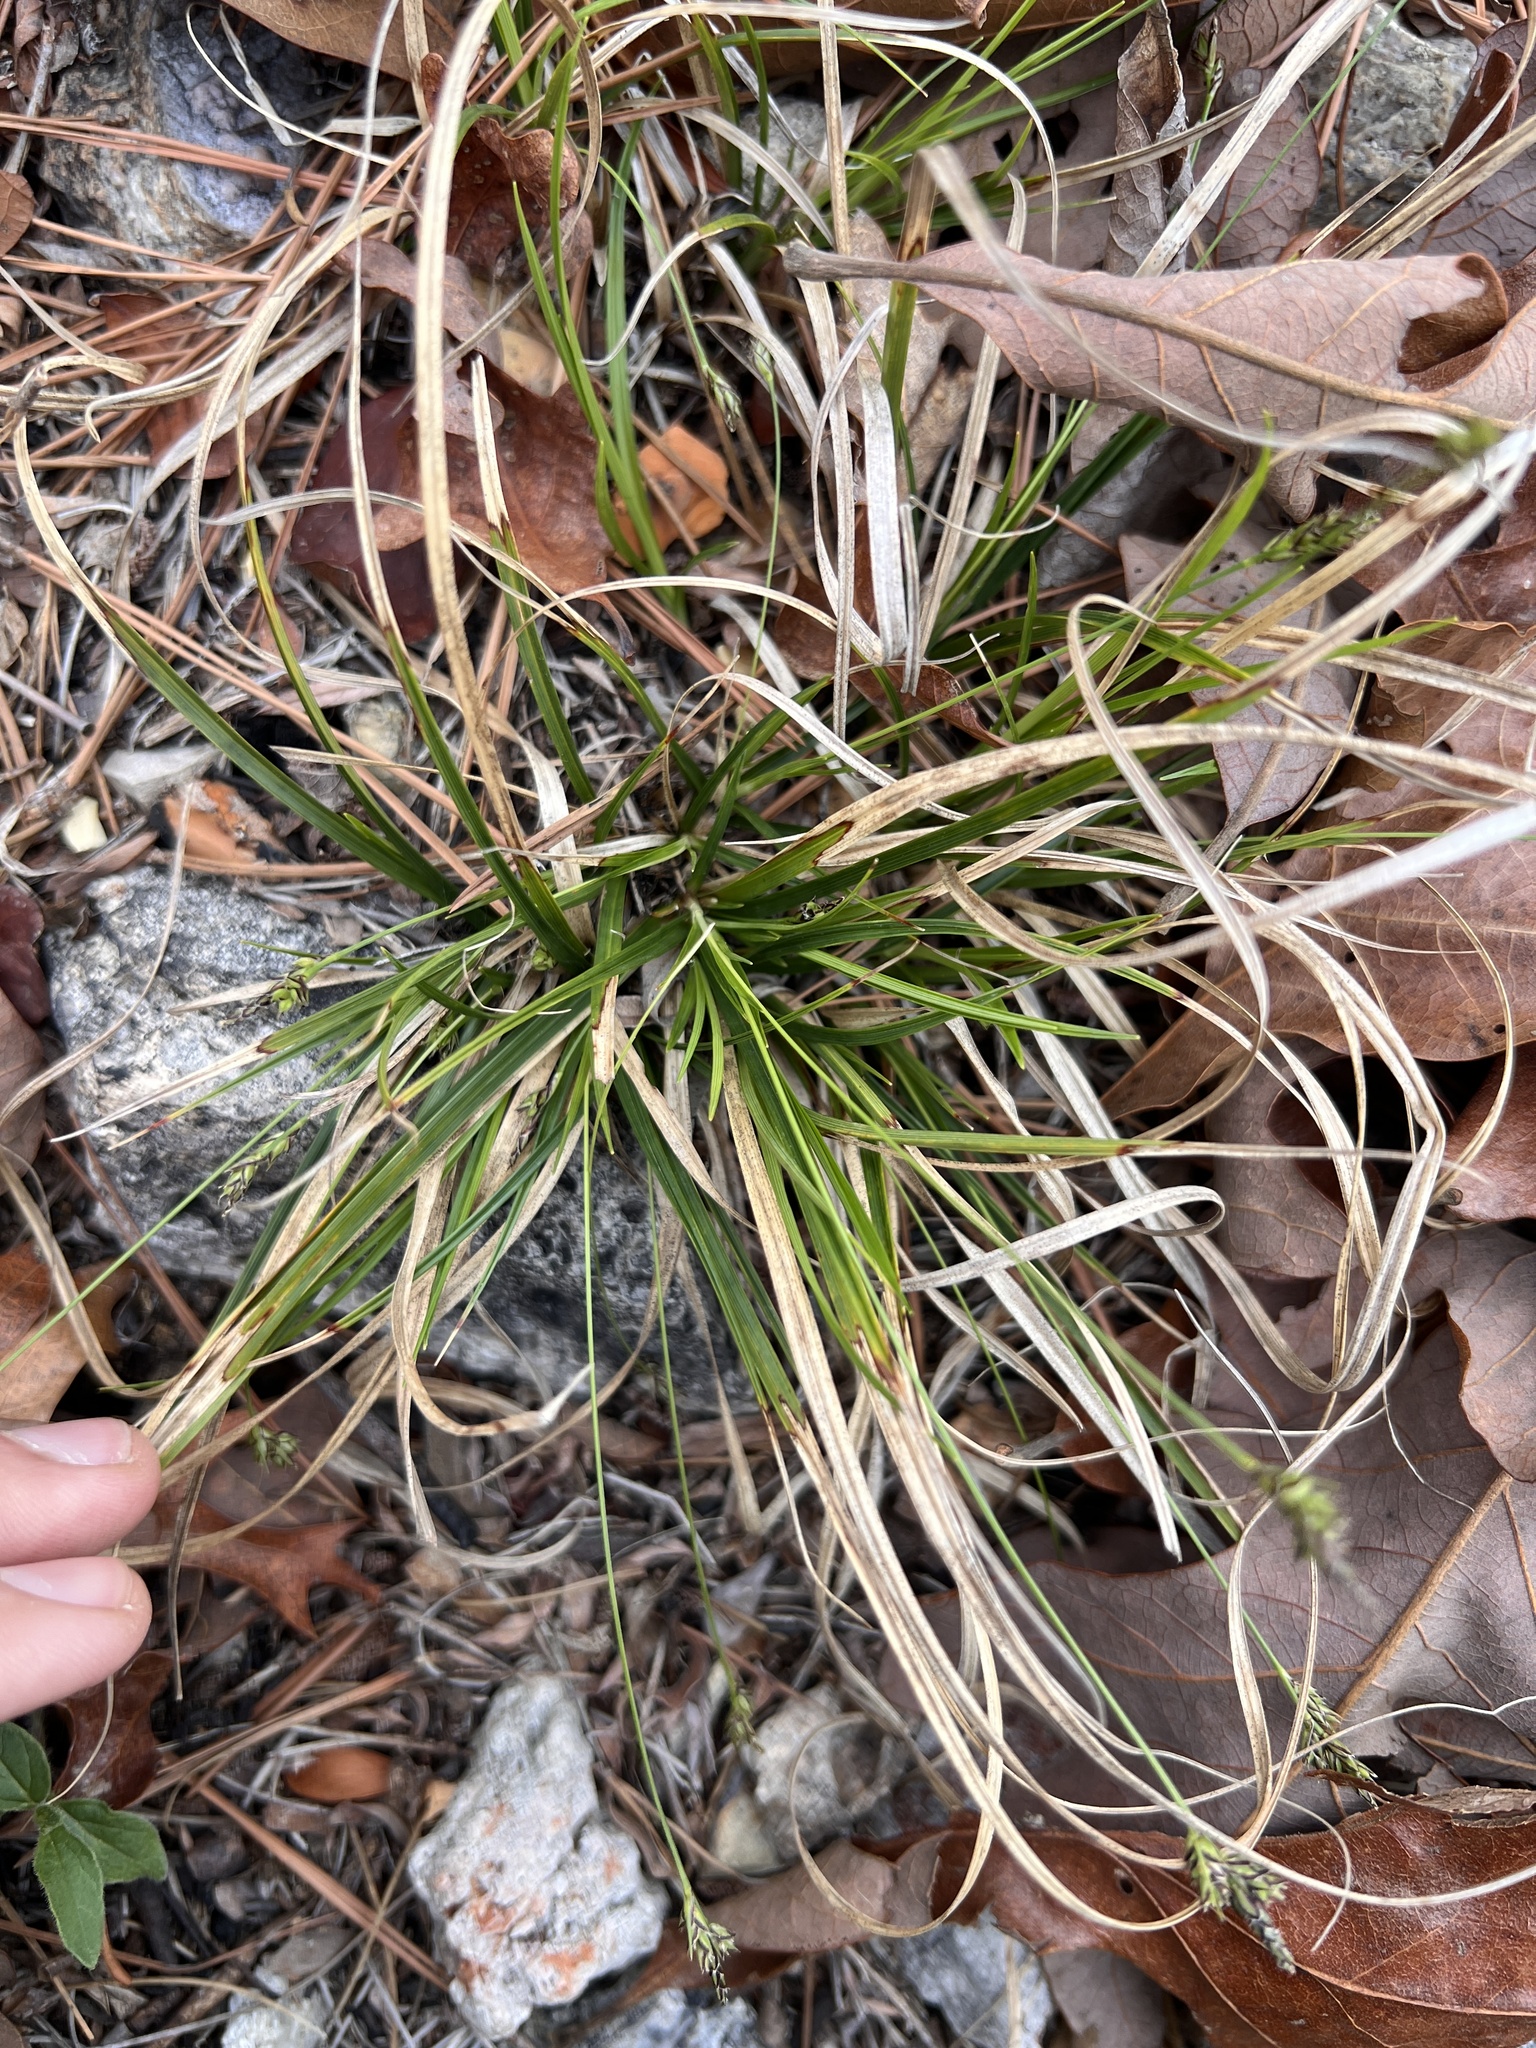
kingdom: Plantae
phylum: Tracheophyta
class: Liliopsida
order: Poales
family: Cyperaceae
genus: Carex
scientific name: Carex nigromarginata
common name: Black-edged sedge
